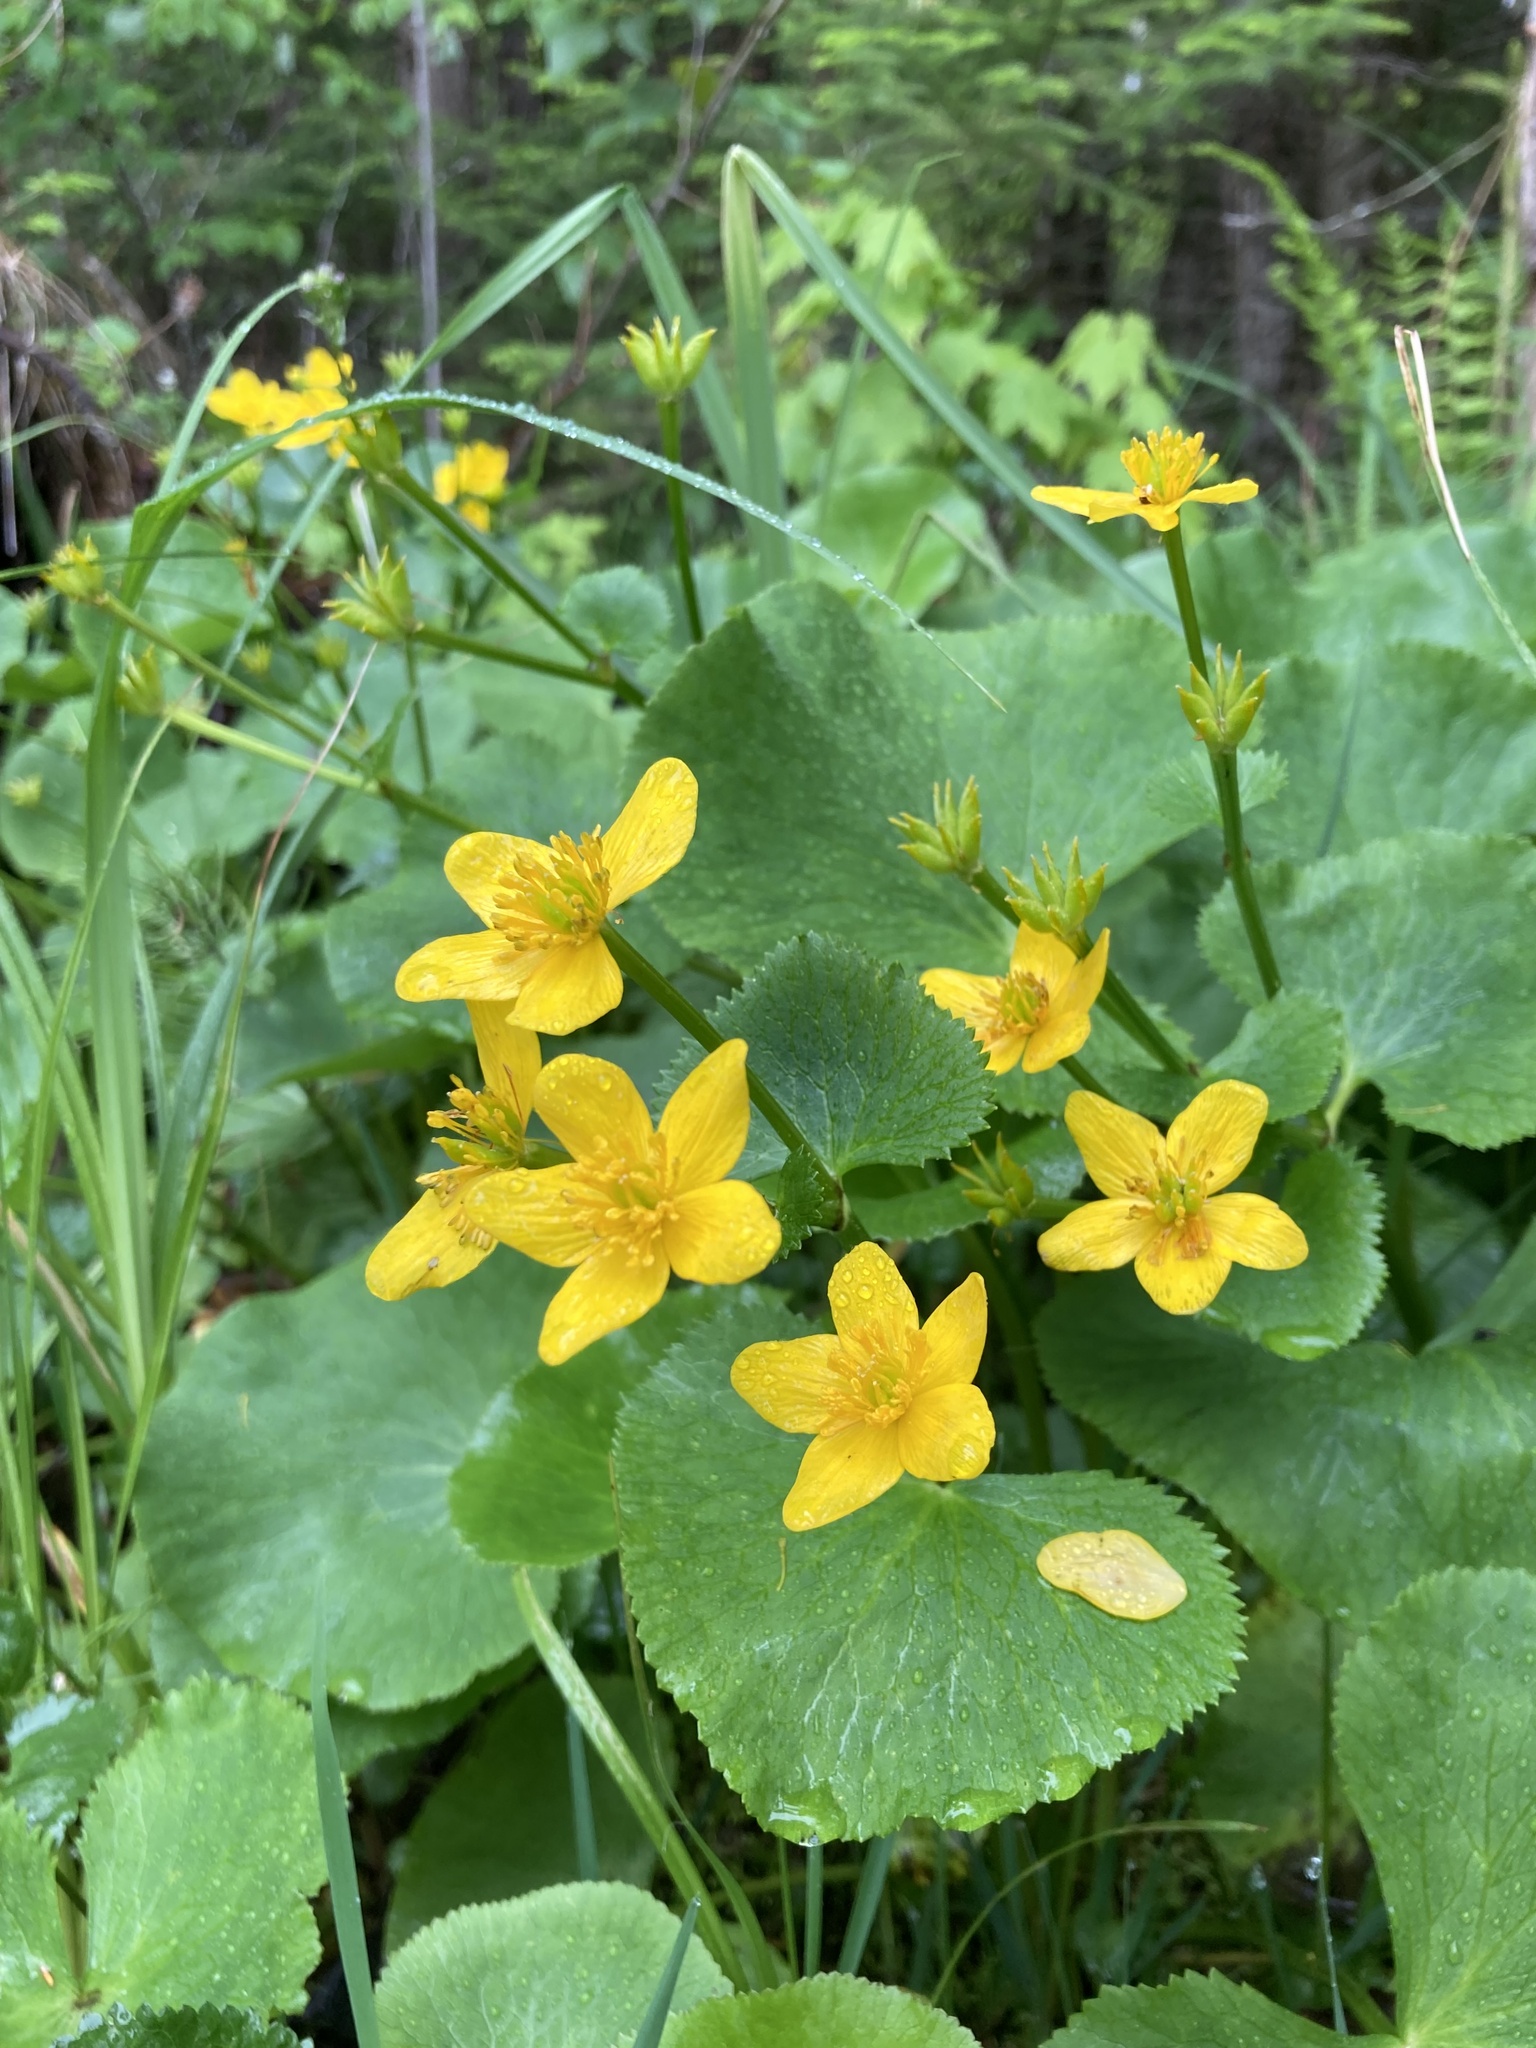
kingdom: Plantae
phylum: Tracheophyta
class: Magnoliopsida
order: Ranunculales
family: Ranunculaceae
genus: Caltha
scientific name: Caltha palustris
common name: Marsh marigold
